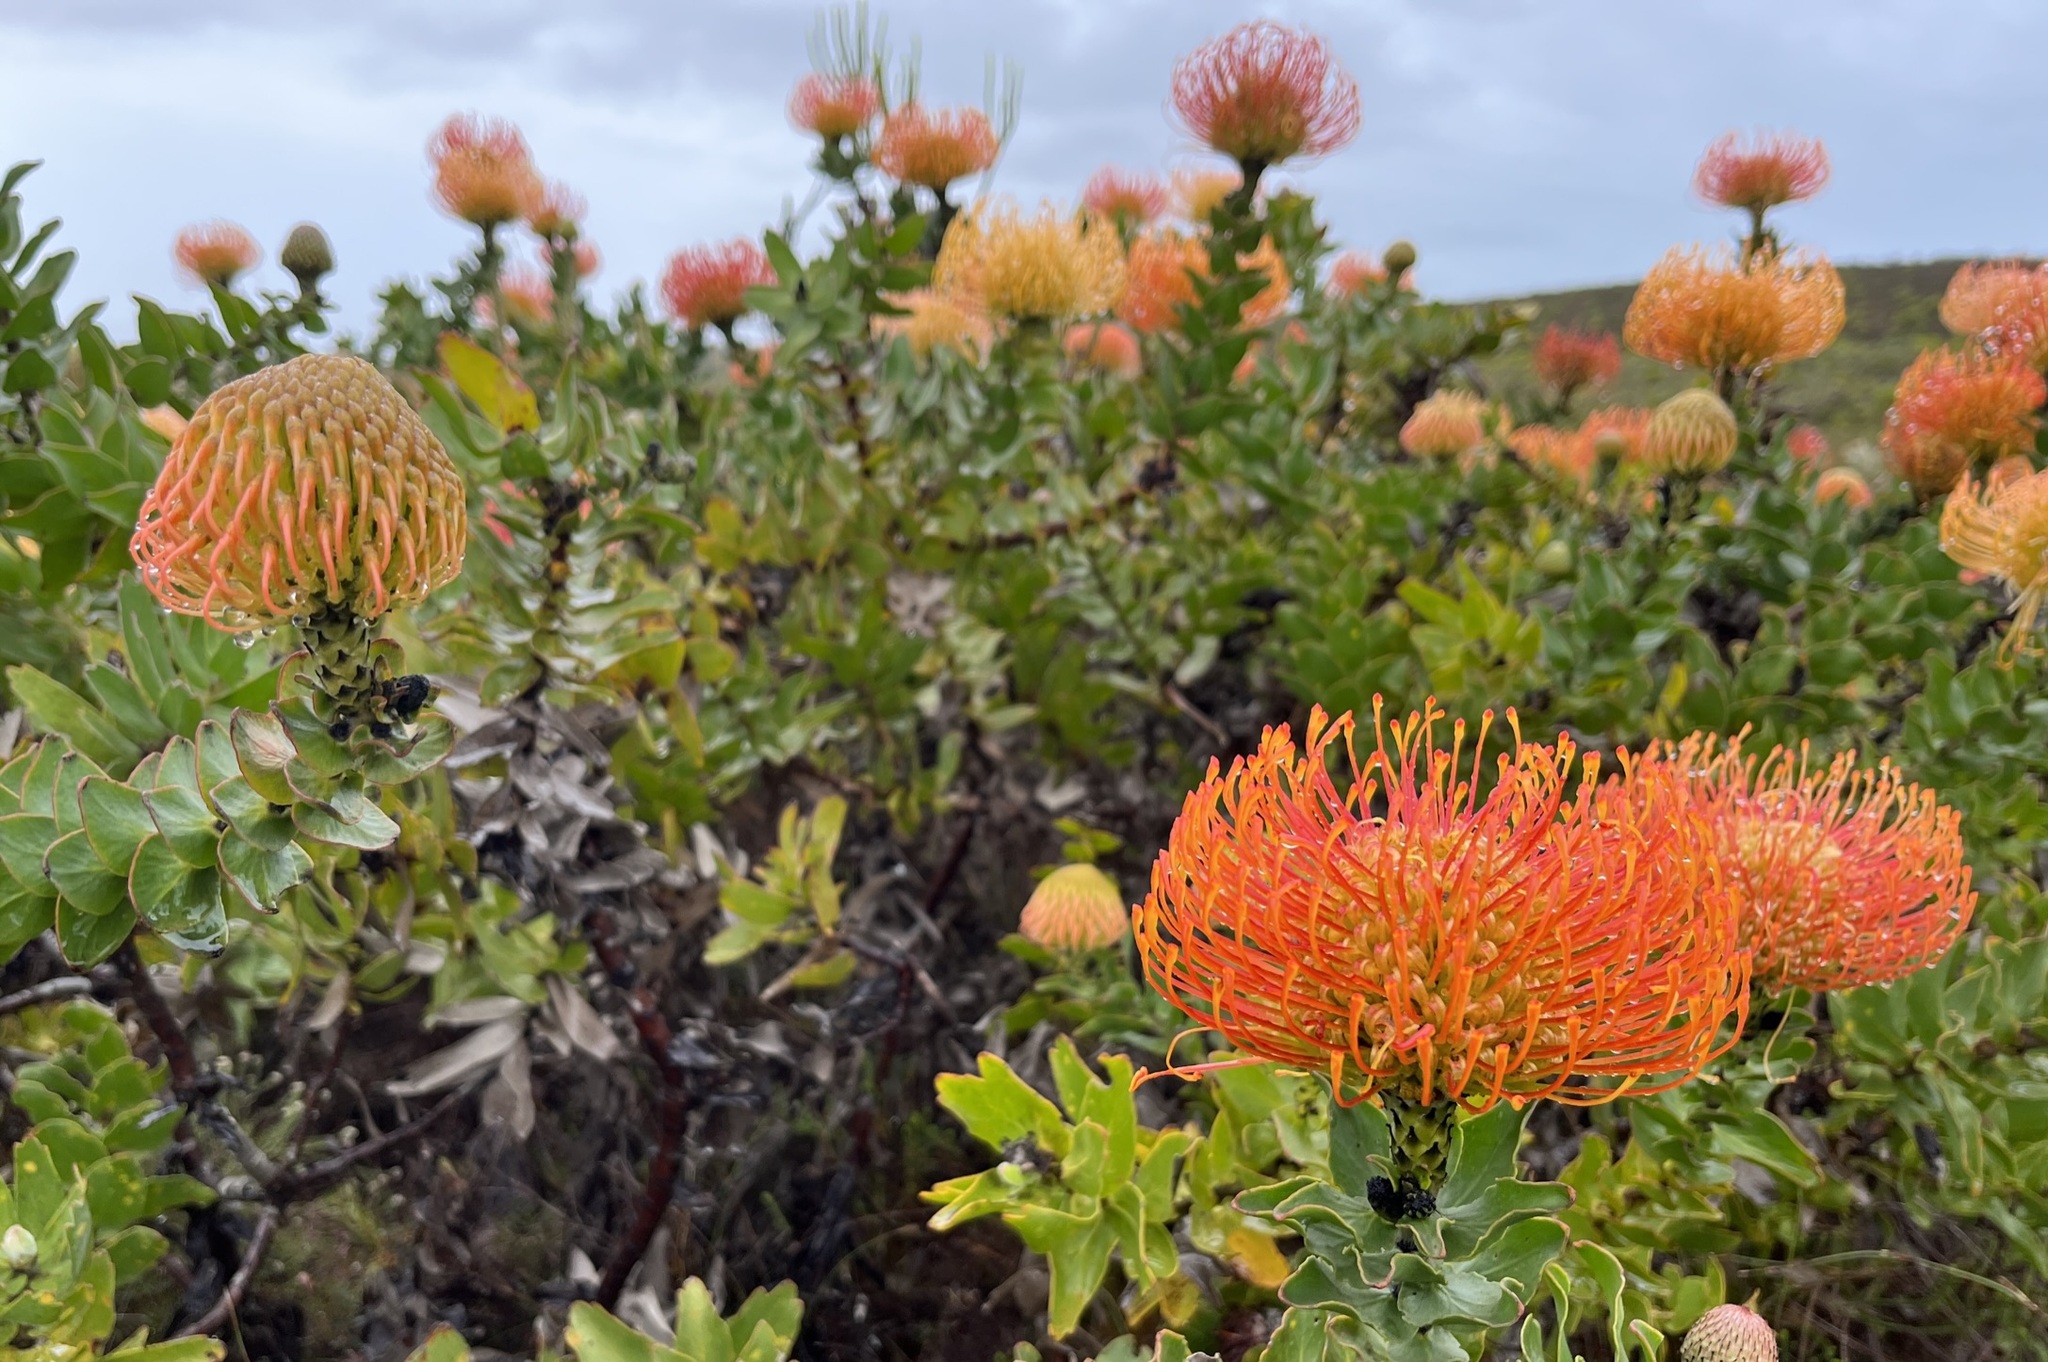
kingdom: Plantae
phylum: Tracheophyta
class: Magnoliopsida
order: Proteales
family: Proteaceae
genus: Leucospermum
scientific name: Leucospermum cordifolium
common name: Red pincushion-protea
